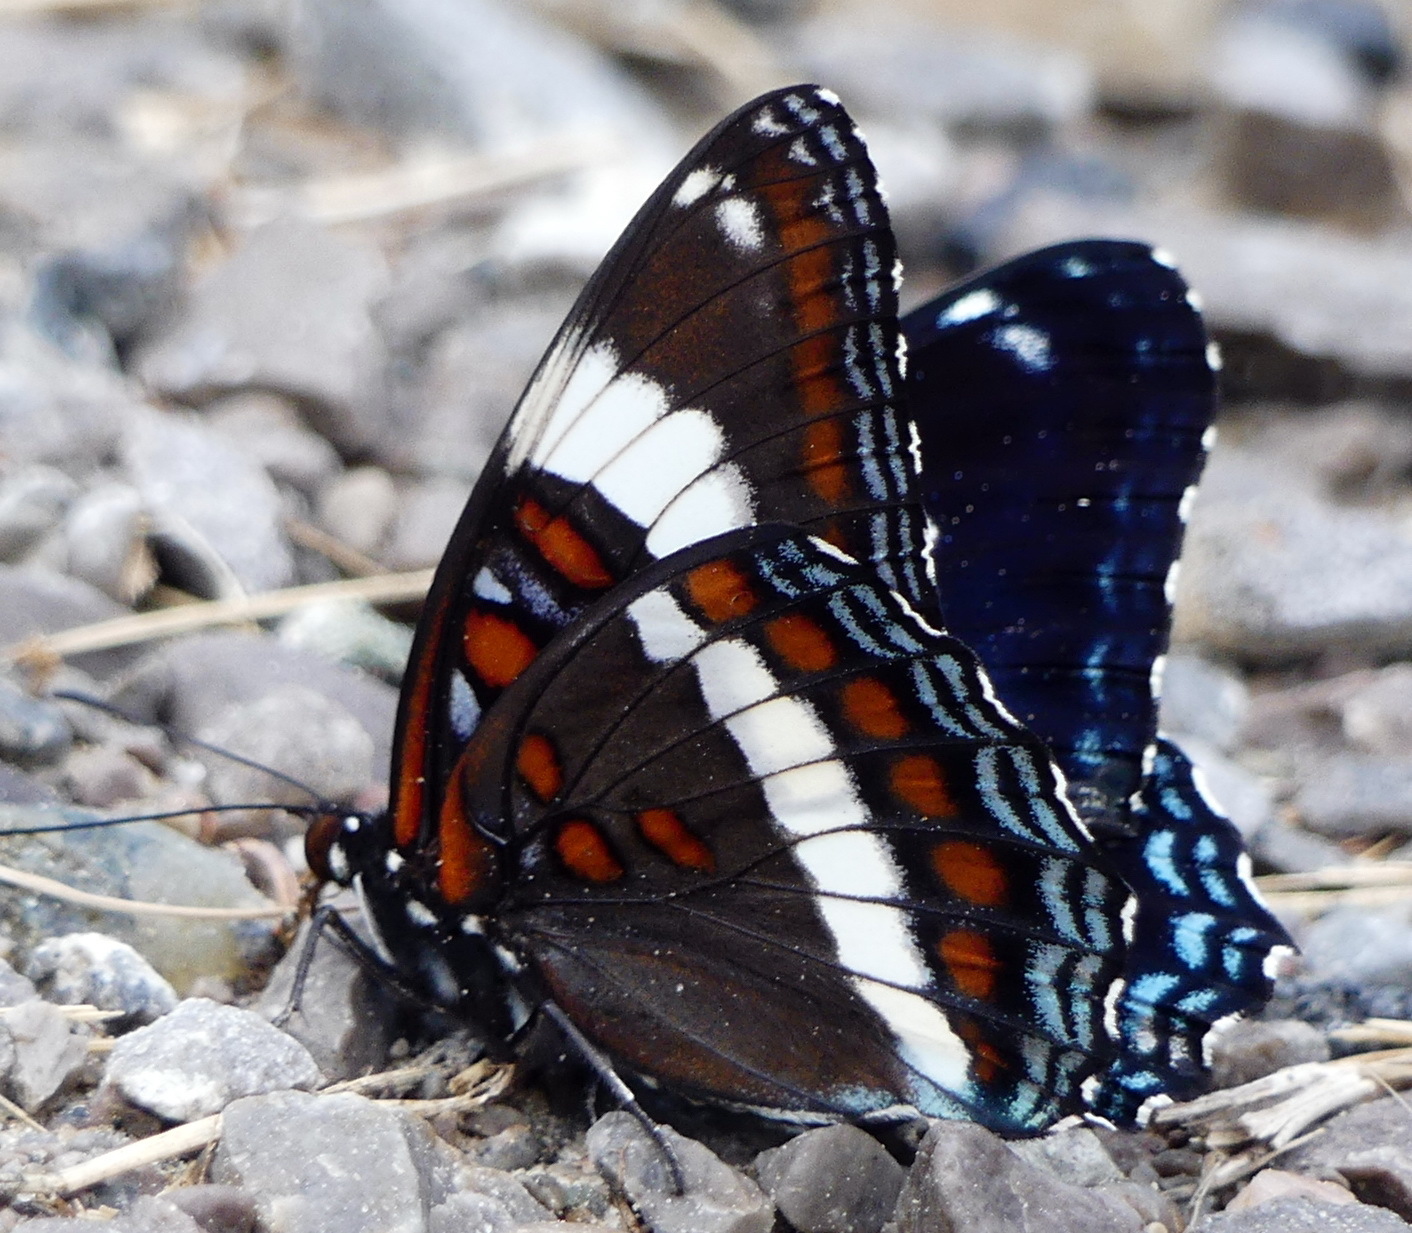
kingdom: Animalia
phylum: Arthropoda
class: Insecta
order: Lepidoptera
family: Nymphalidae
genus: Limenitis
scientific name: Limenitis arthemis
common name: Red-spotted admiral
